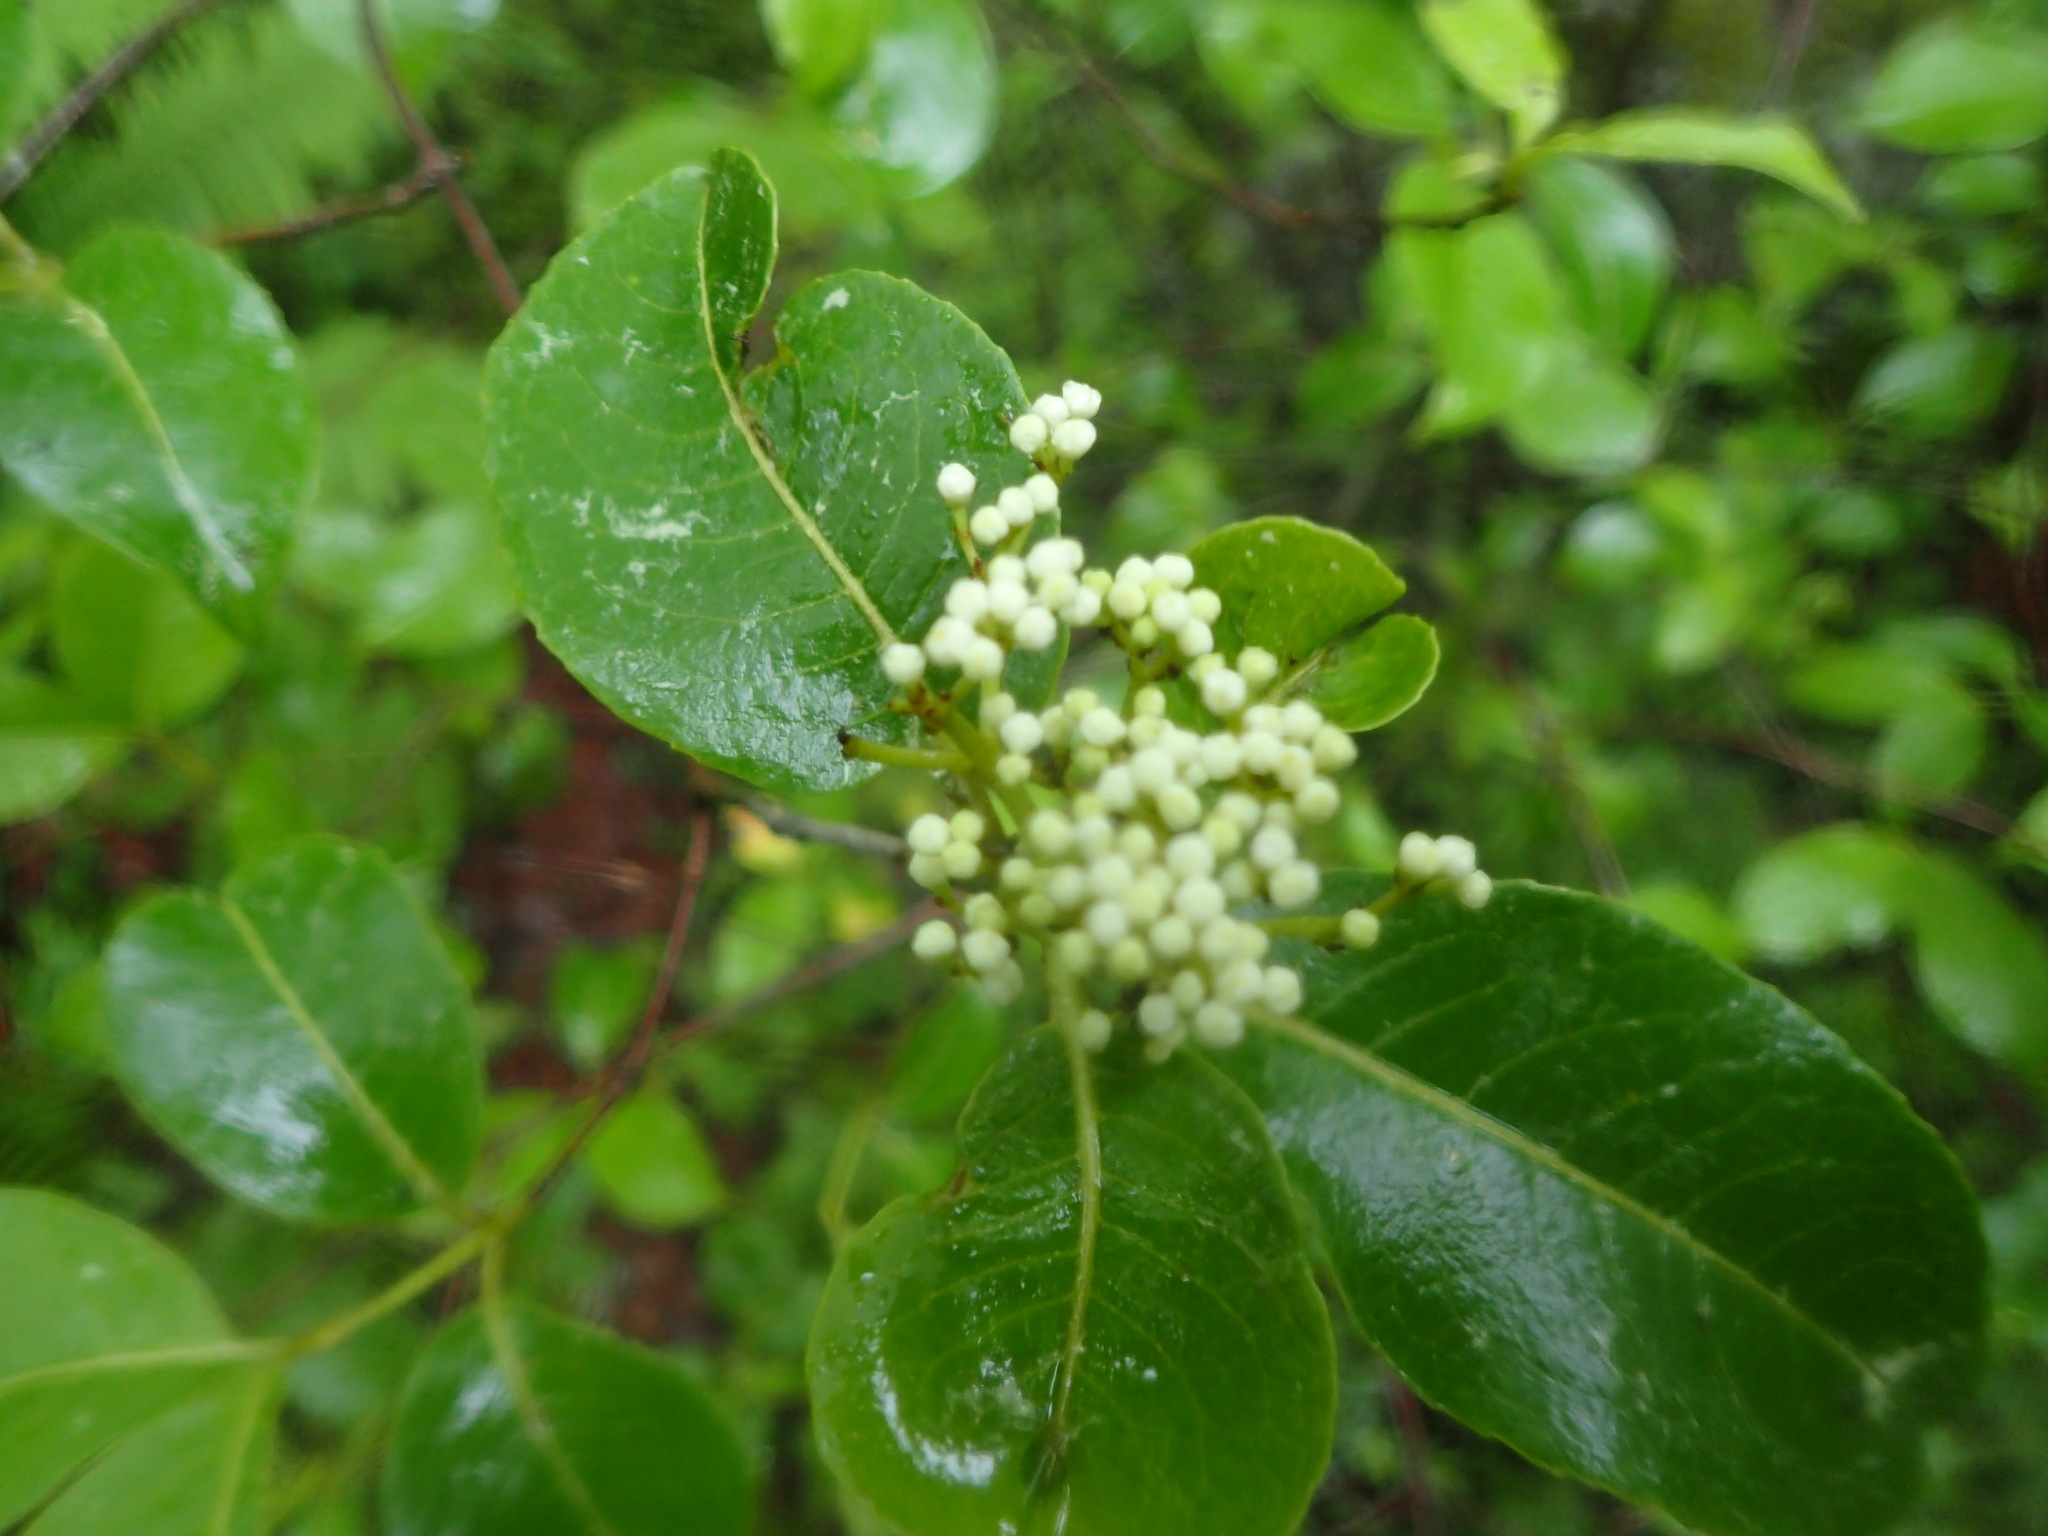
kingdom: Plantae
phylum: Tracheophyta
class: Magnoliopsida
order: Dipsacales
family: Viburnaceae
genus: Viburnum
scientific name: Viburnum cassinoides
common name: Swamp haw
